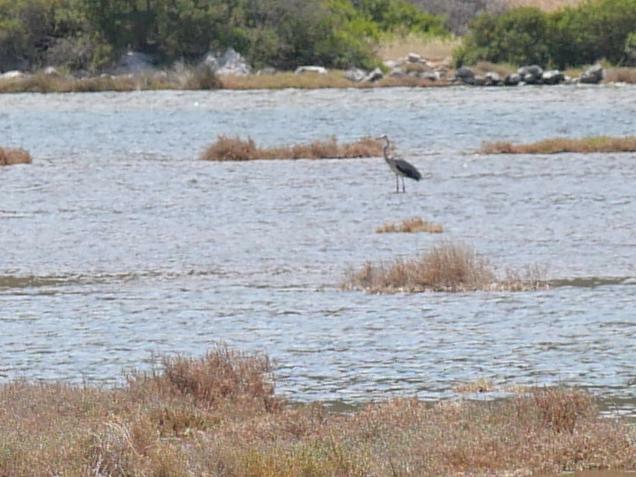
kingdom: Animalia
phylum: Chordata
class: Aves
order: Pelecaniformes
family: Ardeidae
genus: Ardea
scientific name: Ardea cinerea
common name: Grey heron
